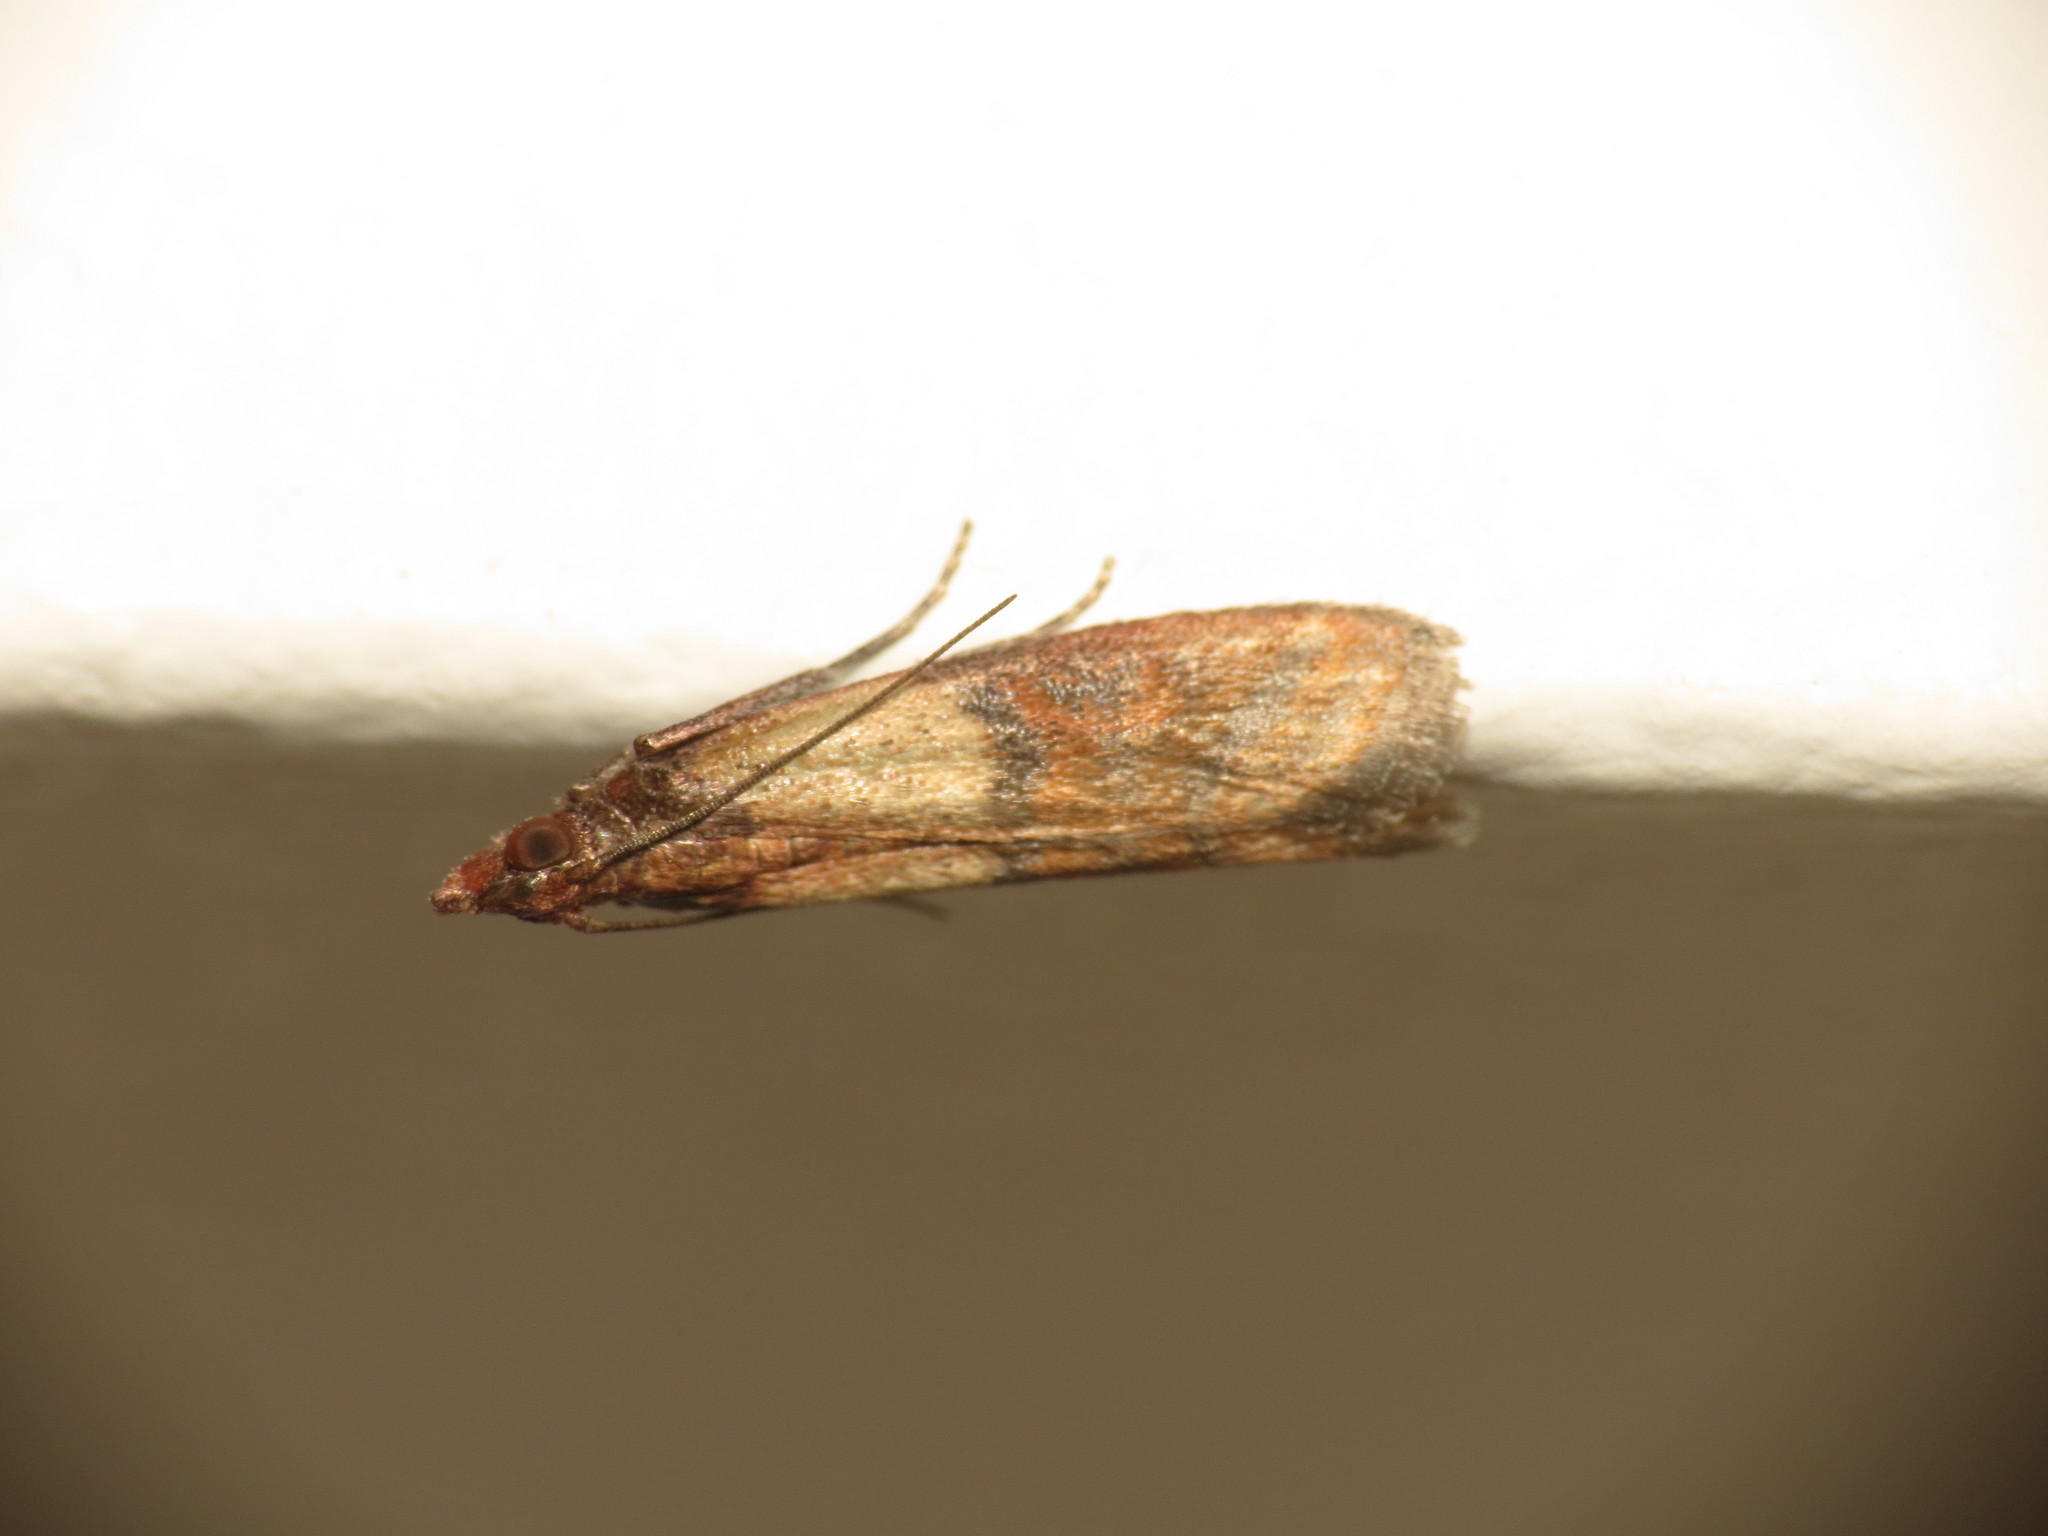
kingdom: Animalia
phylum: Arthropoda
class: Insecta
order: Lepidoptera
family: Pyralidae
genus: Plodia
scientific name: Plodia interpunctella
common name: Indian meal moth
